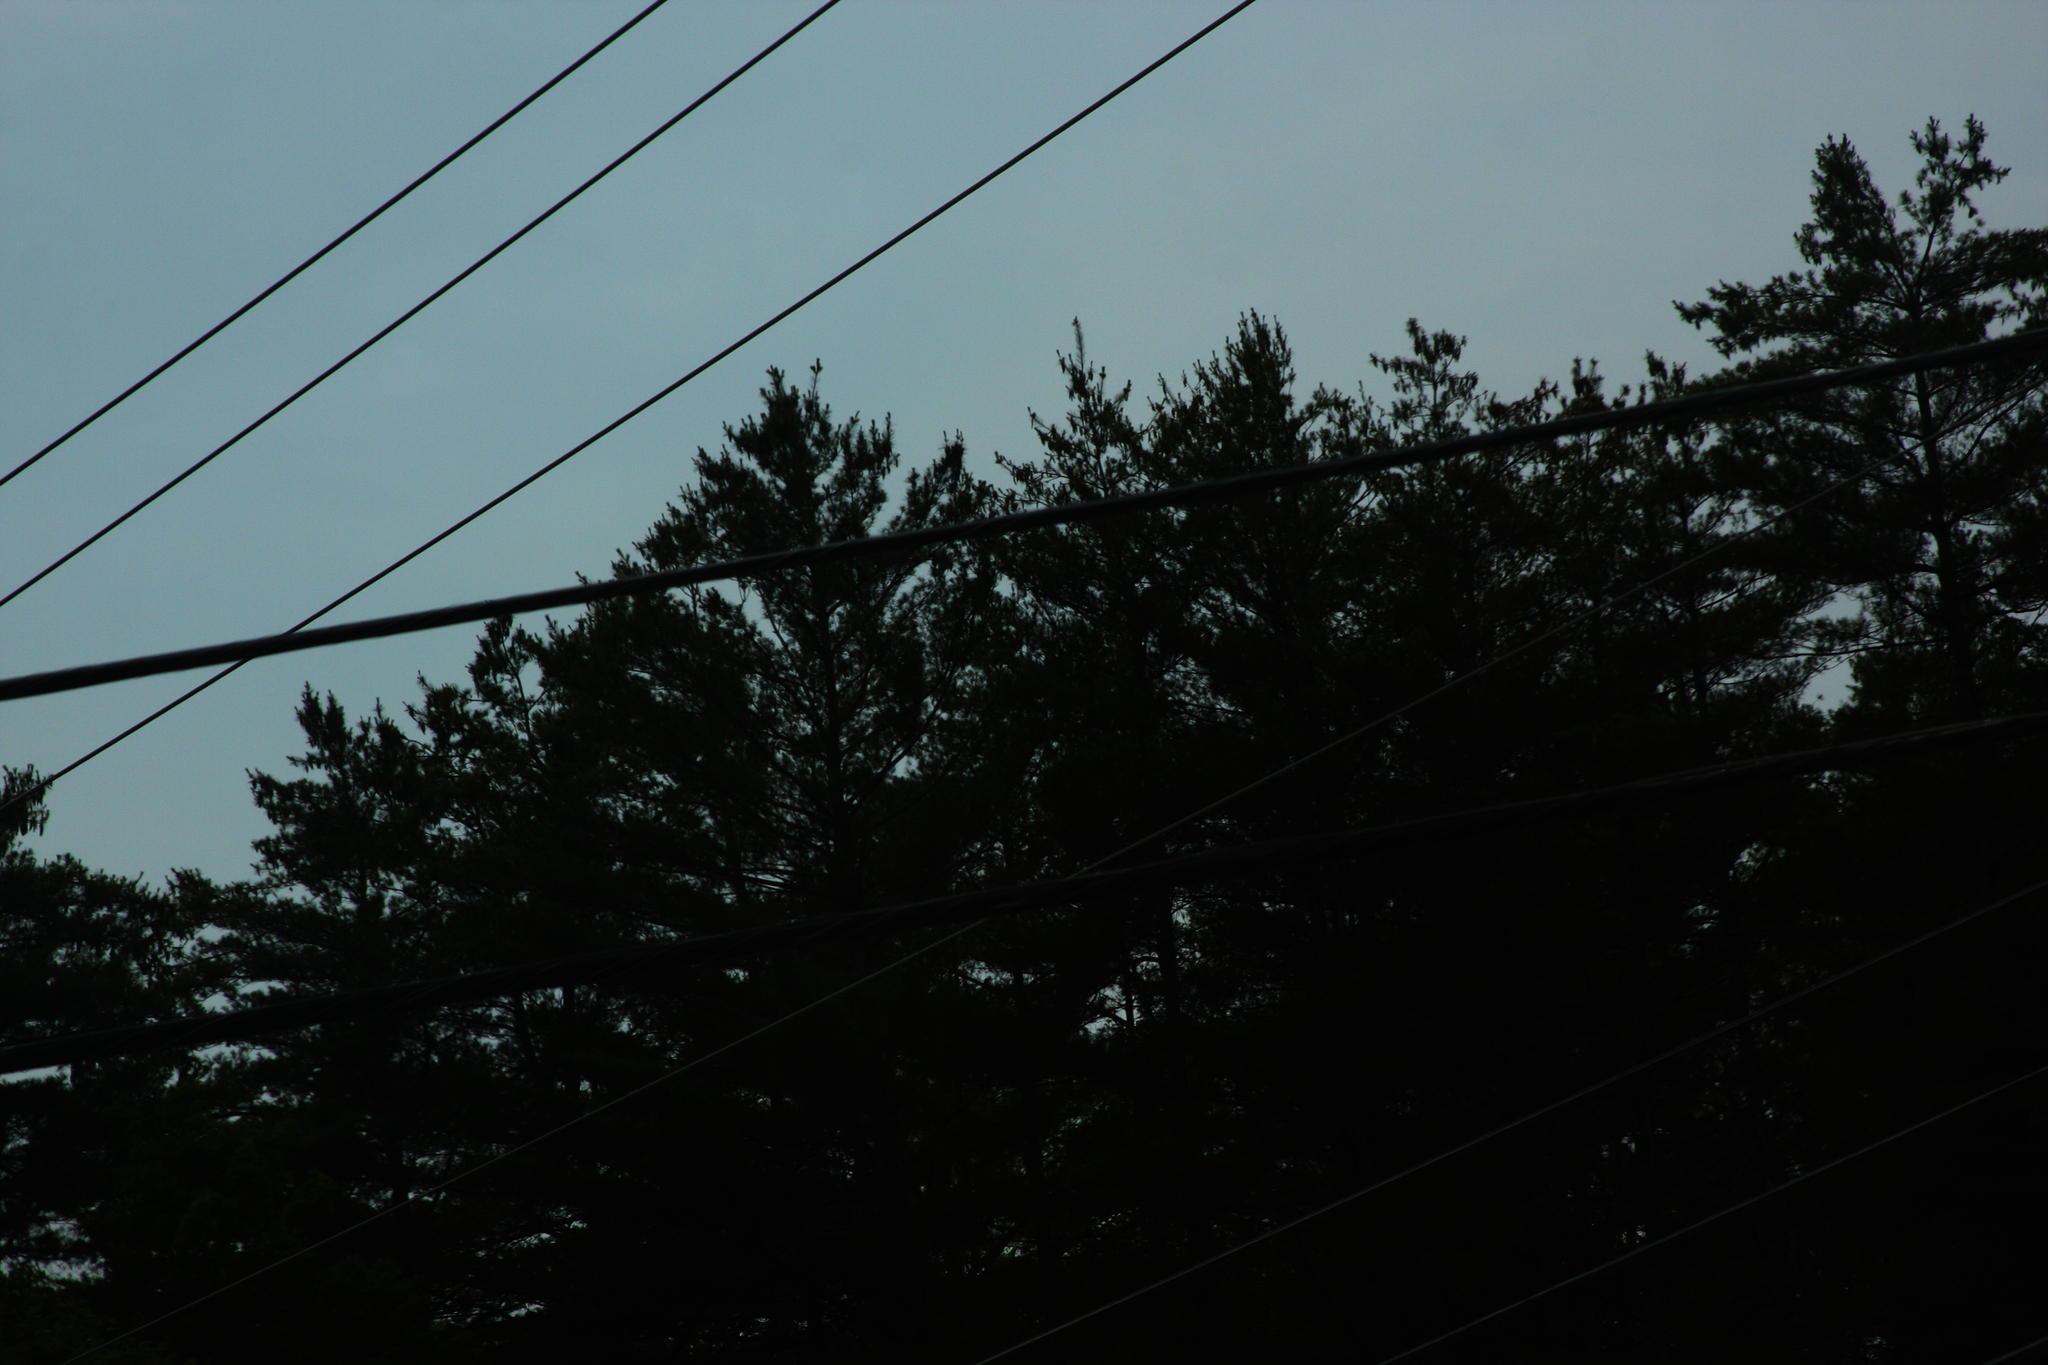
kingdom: Plantae
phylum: Tracheophyta
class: Pinopsida
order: Pinales
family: Pinaceae
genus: Pinus
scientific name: Pinus strobus
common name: Weymouth pine
